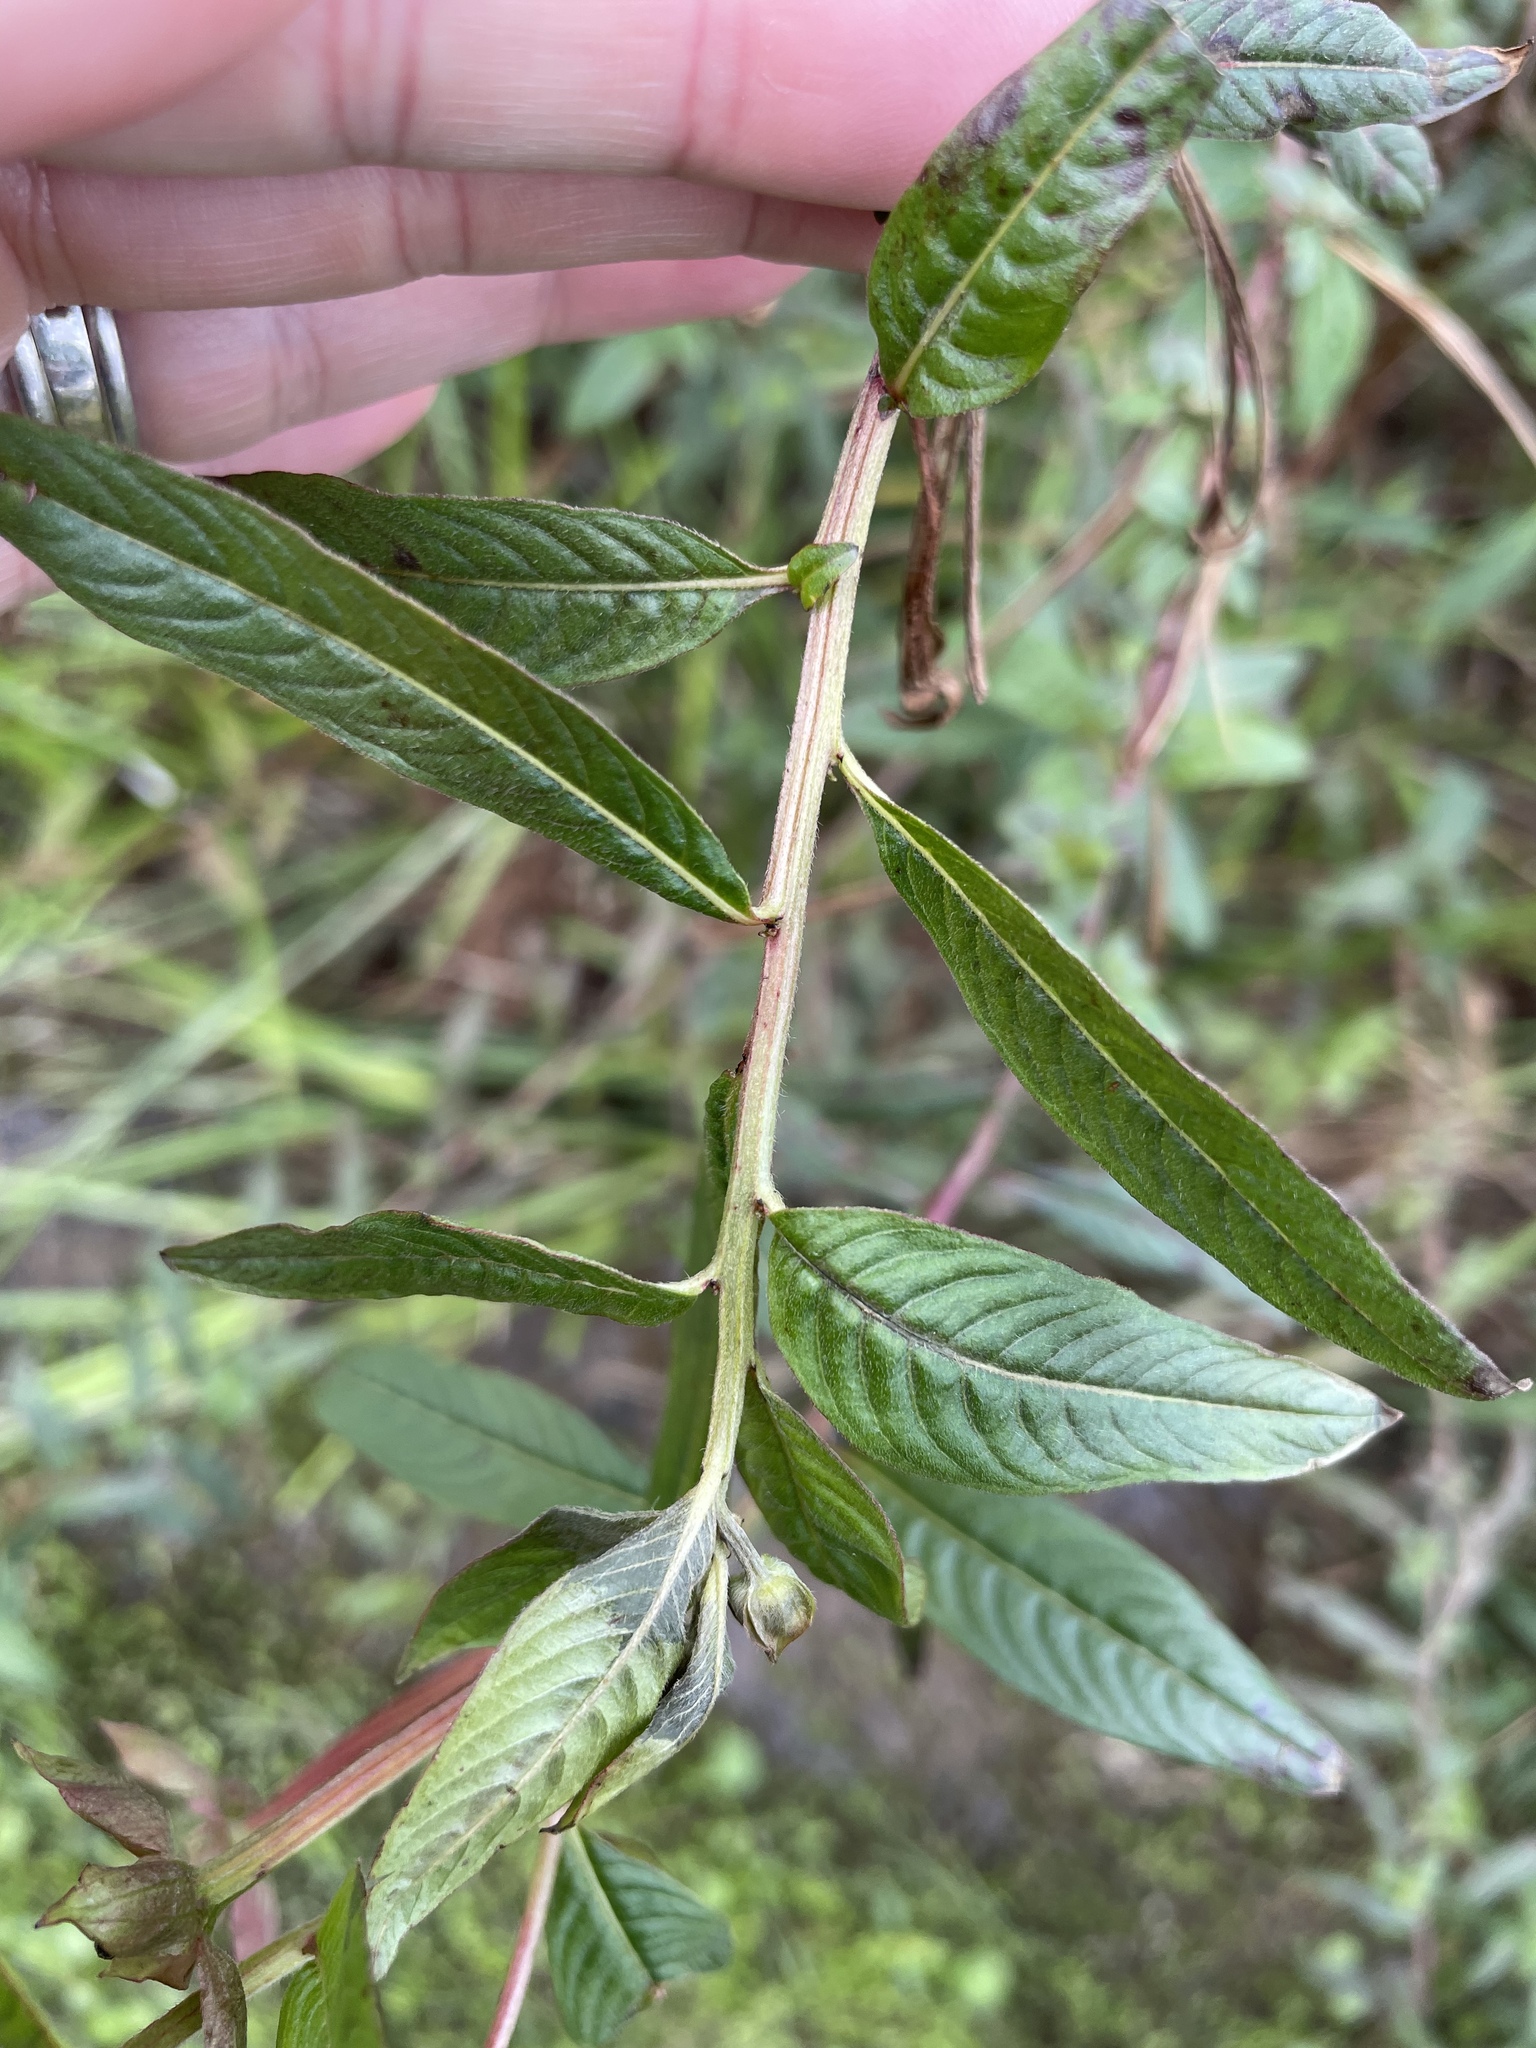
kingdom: Plantae
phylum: Tracheophyta
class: Magnoliopsida
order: Myrtales
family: Onagraceae
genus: Ludwigia
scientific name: Ludwigia octovalvis
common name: Water-primrose
